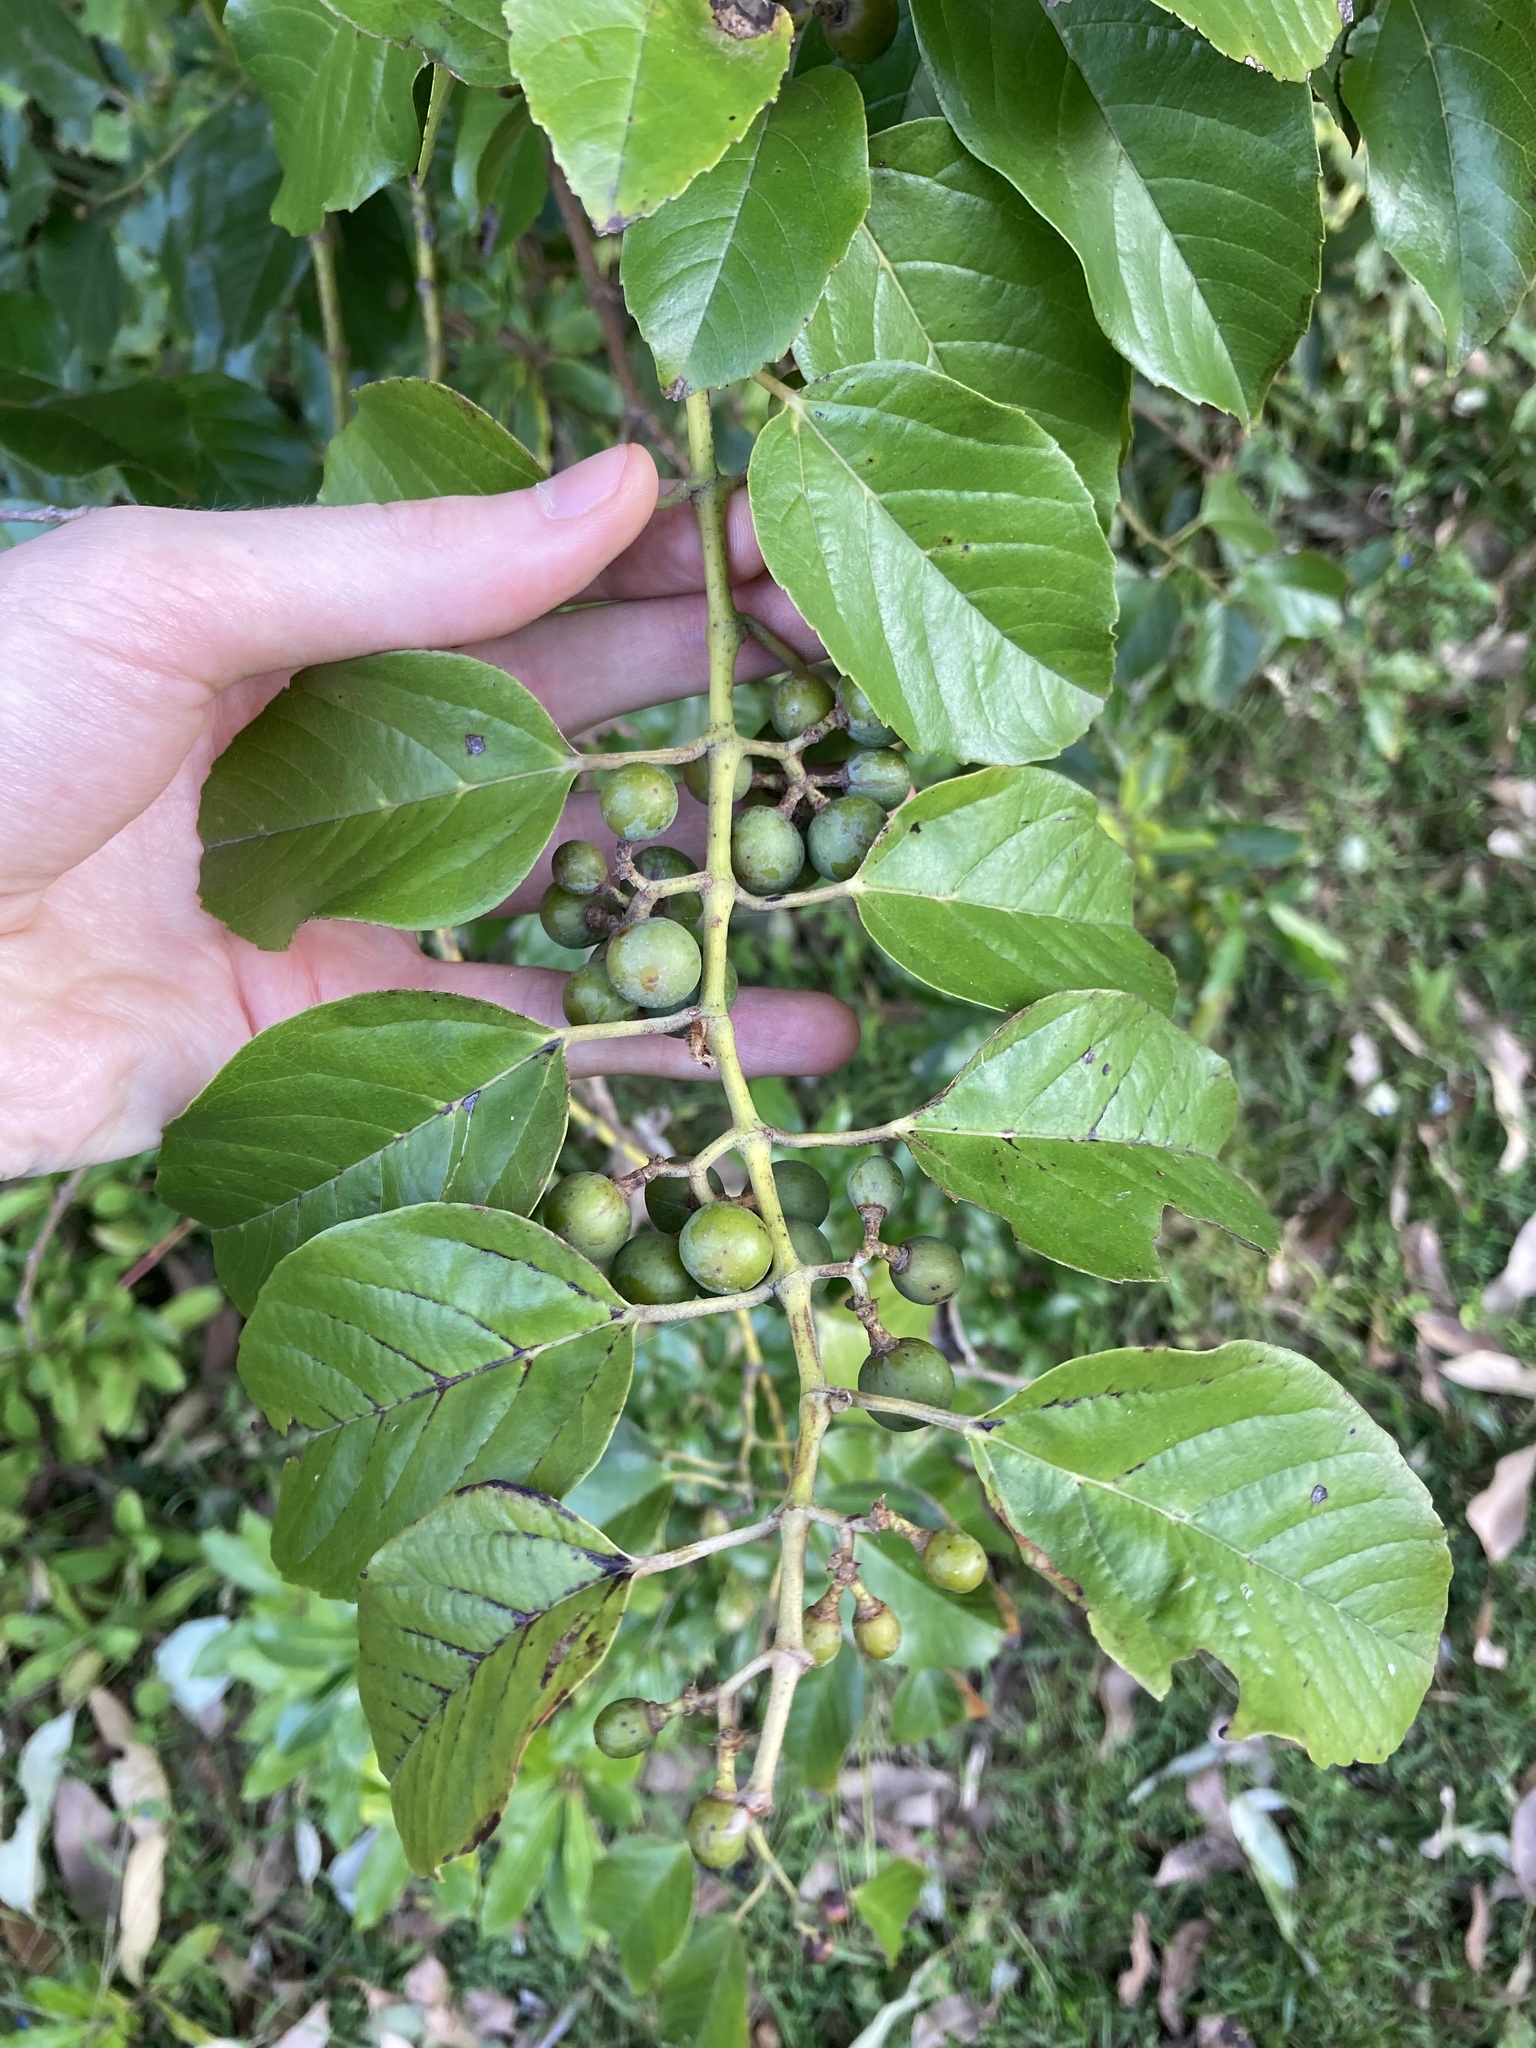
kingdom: Plantae
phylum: Tracheophyta
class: Magnoliopsida
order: Vitales
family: Vitaceae
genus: Cissus
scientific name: Cissus antarctica
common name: Kangaroo vine
